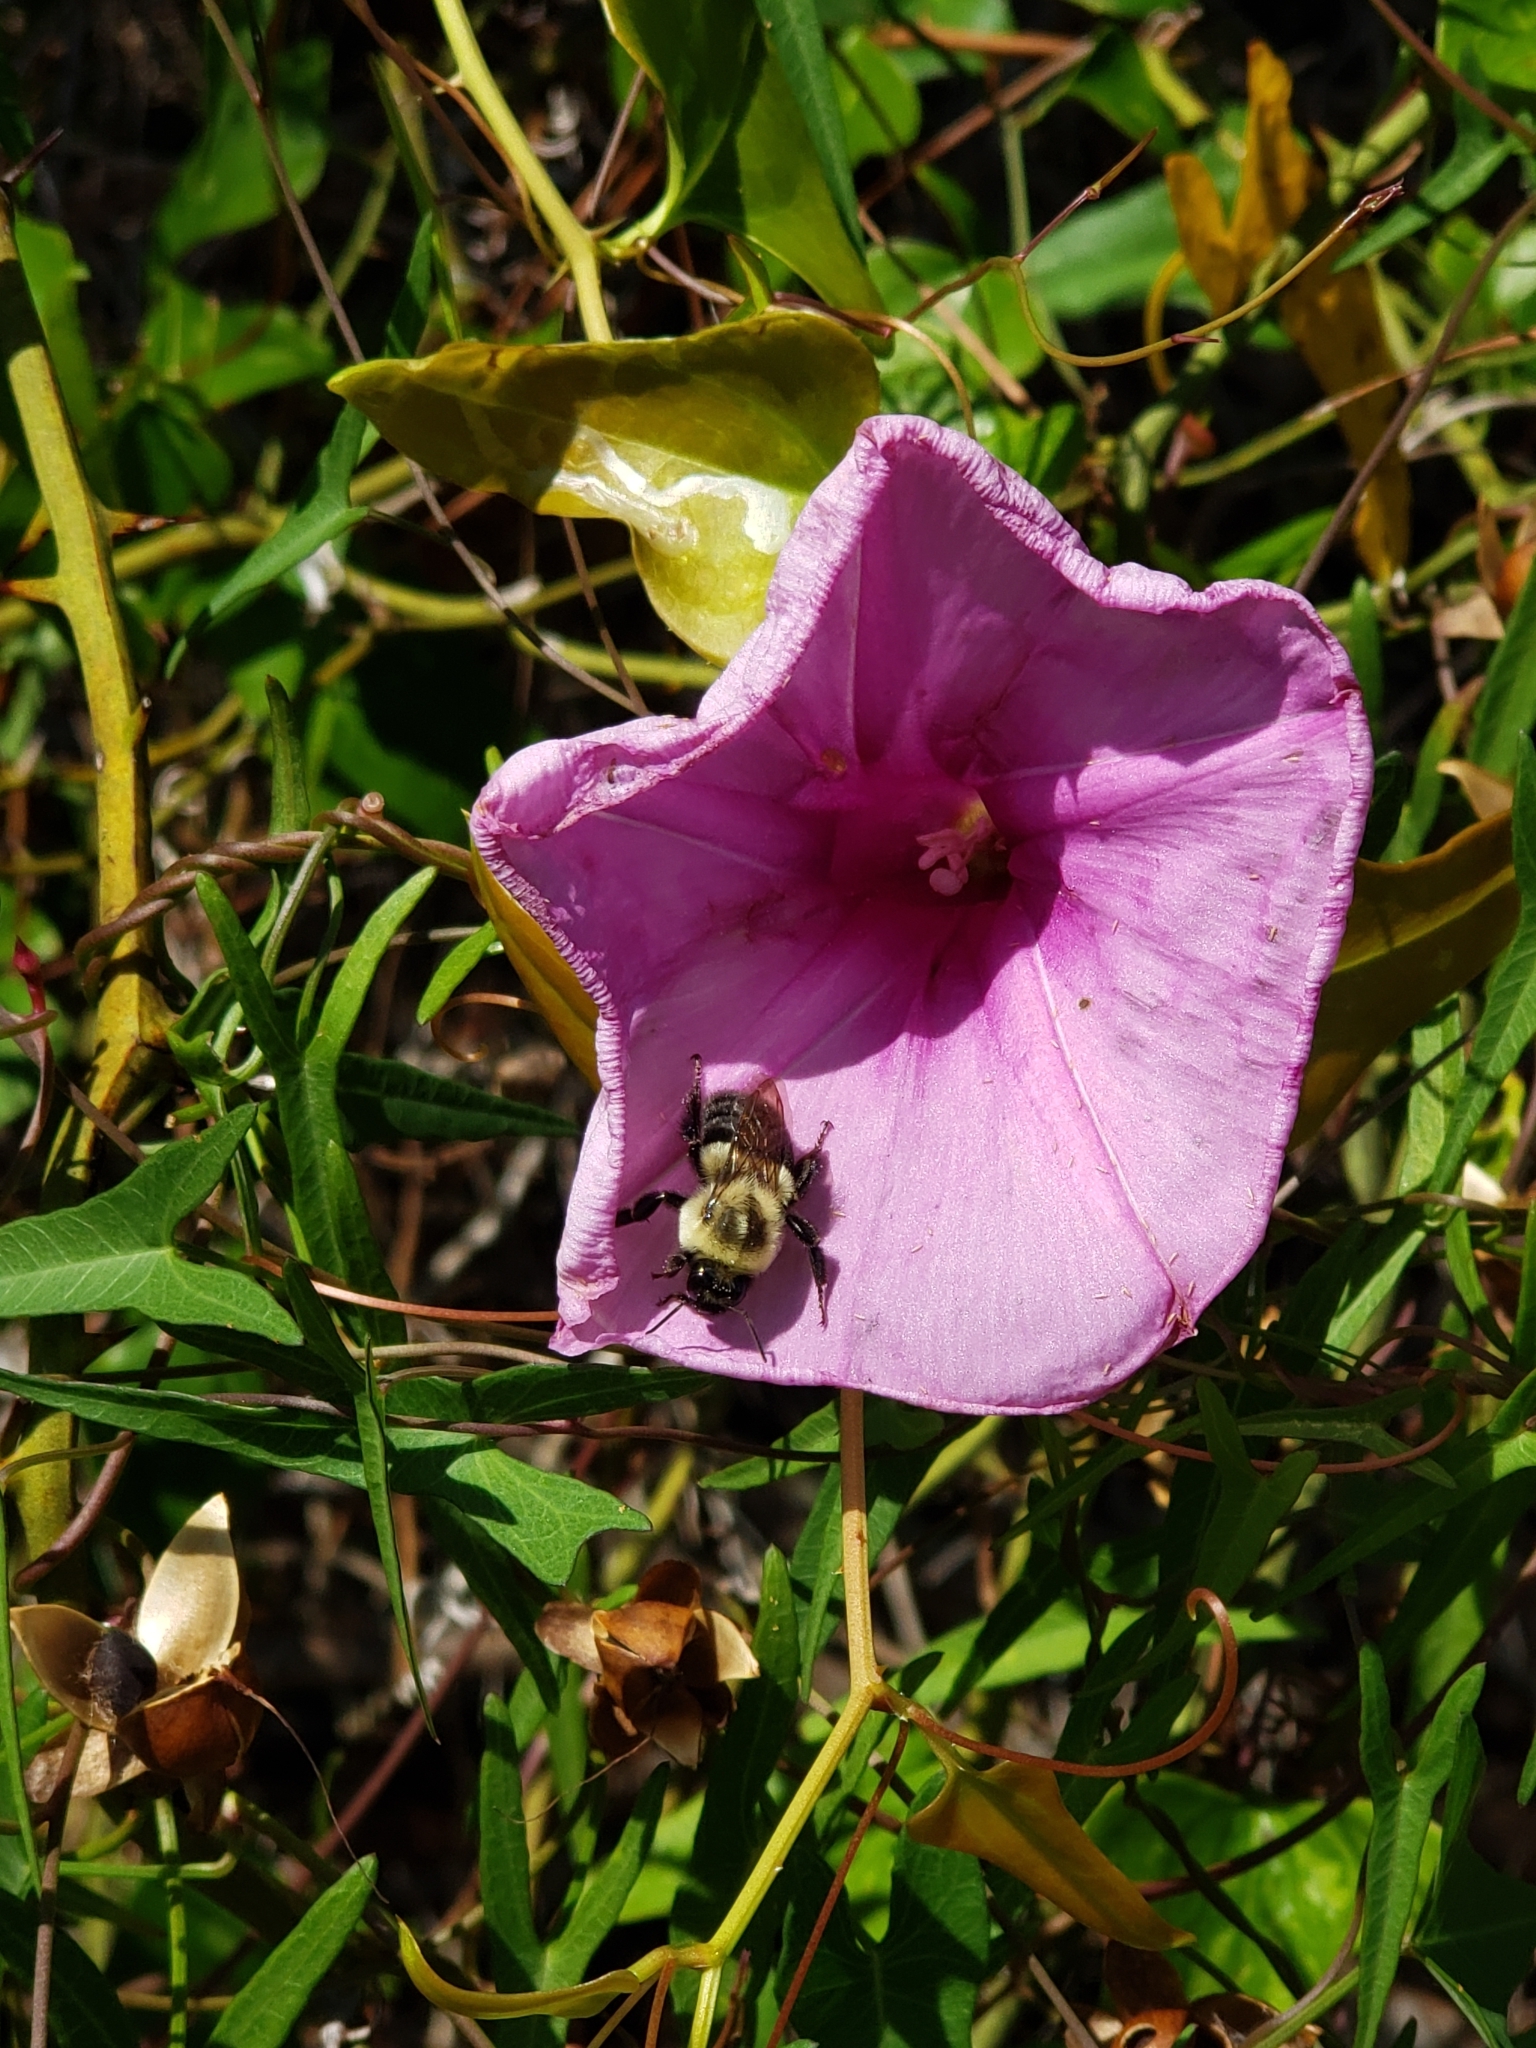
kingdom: Animalia
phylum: Arthropoda
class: Insecta
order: Hymenoptera
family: Apidae
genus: Bombus
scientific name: Bombus impatiens
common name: Common eastern bumble bee
